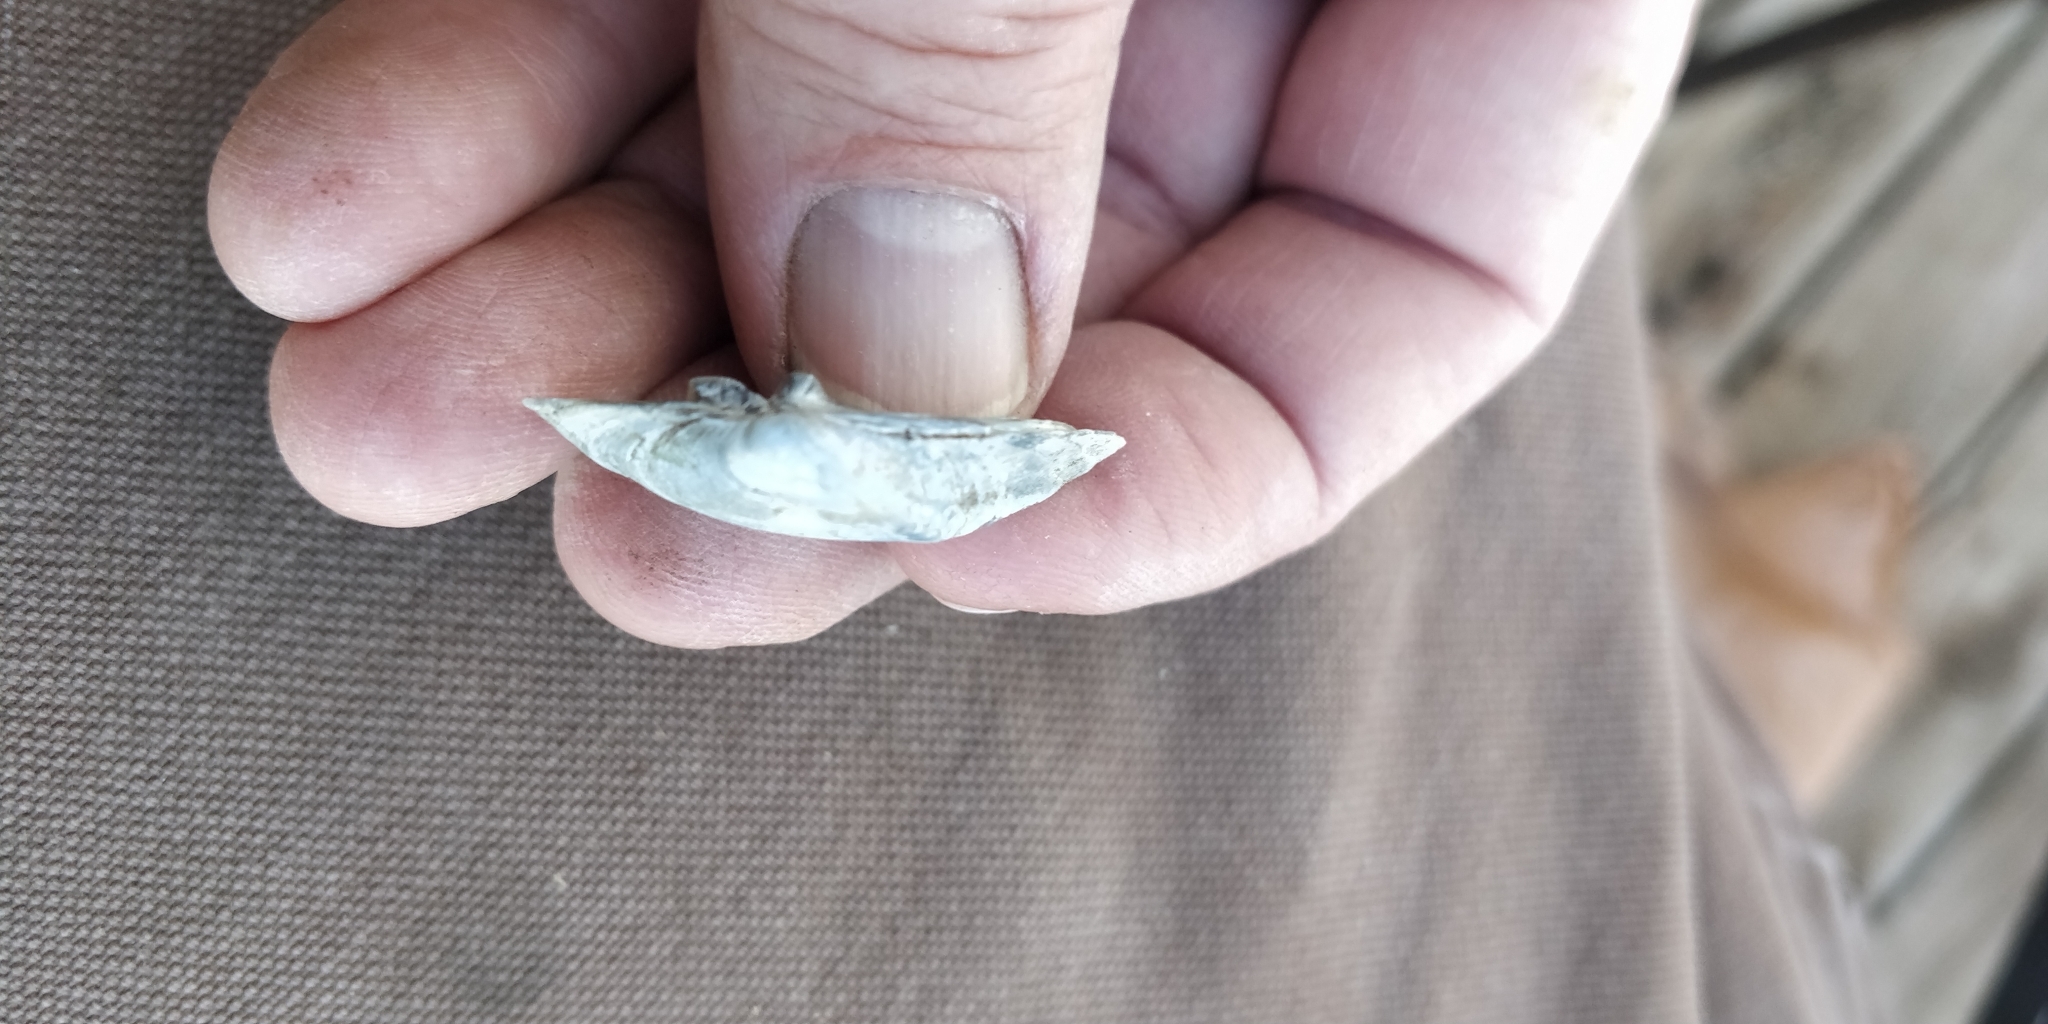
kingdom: Animalia
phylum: Mollusca
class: Bivalvia
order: Unionida
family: Unionidae
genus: Truncilla
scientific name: Truncilla truncata
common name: Deertoe
